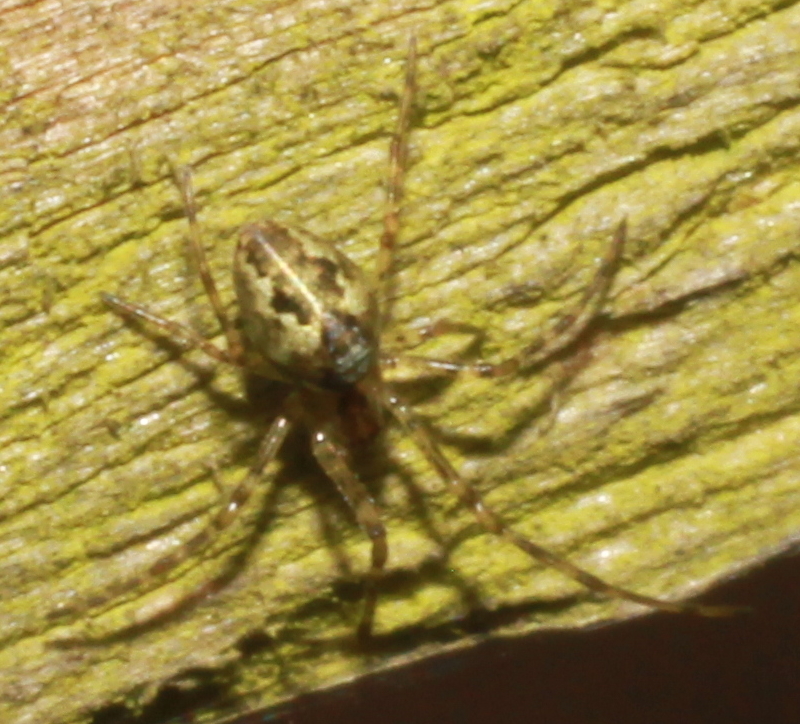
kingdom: Animalia
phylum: Arthropoda
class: Arachnida
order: Araneae
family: Tetragnathidae
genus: Tetragnatha
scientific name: Tetragnatha obtusa
